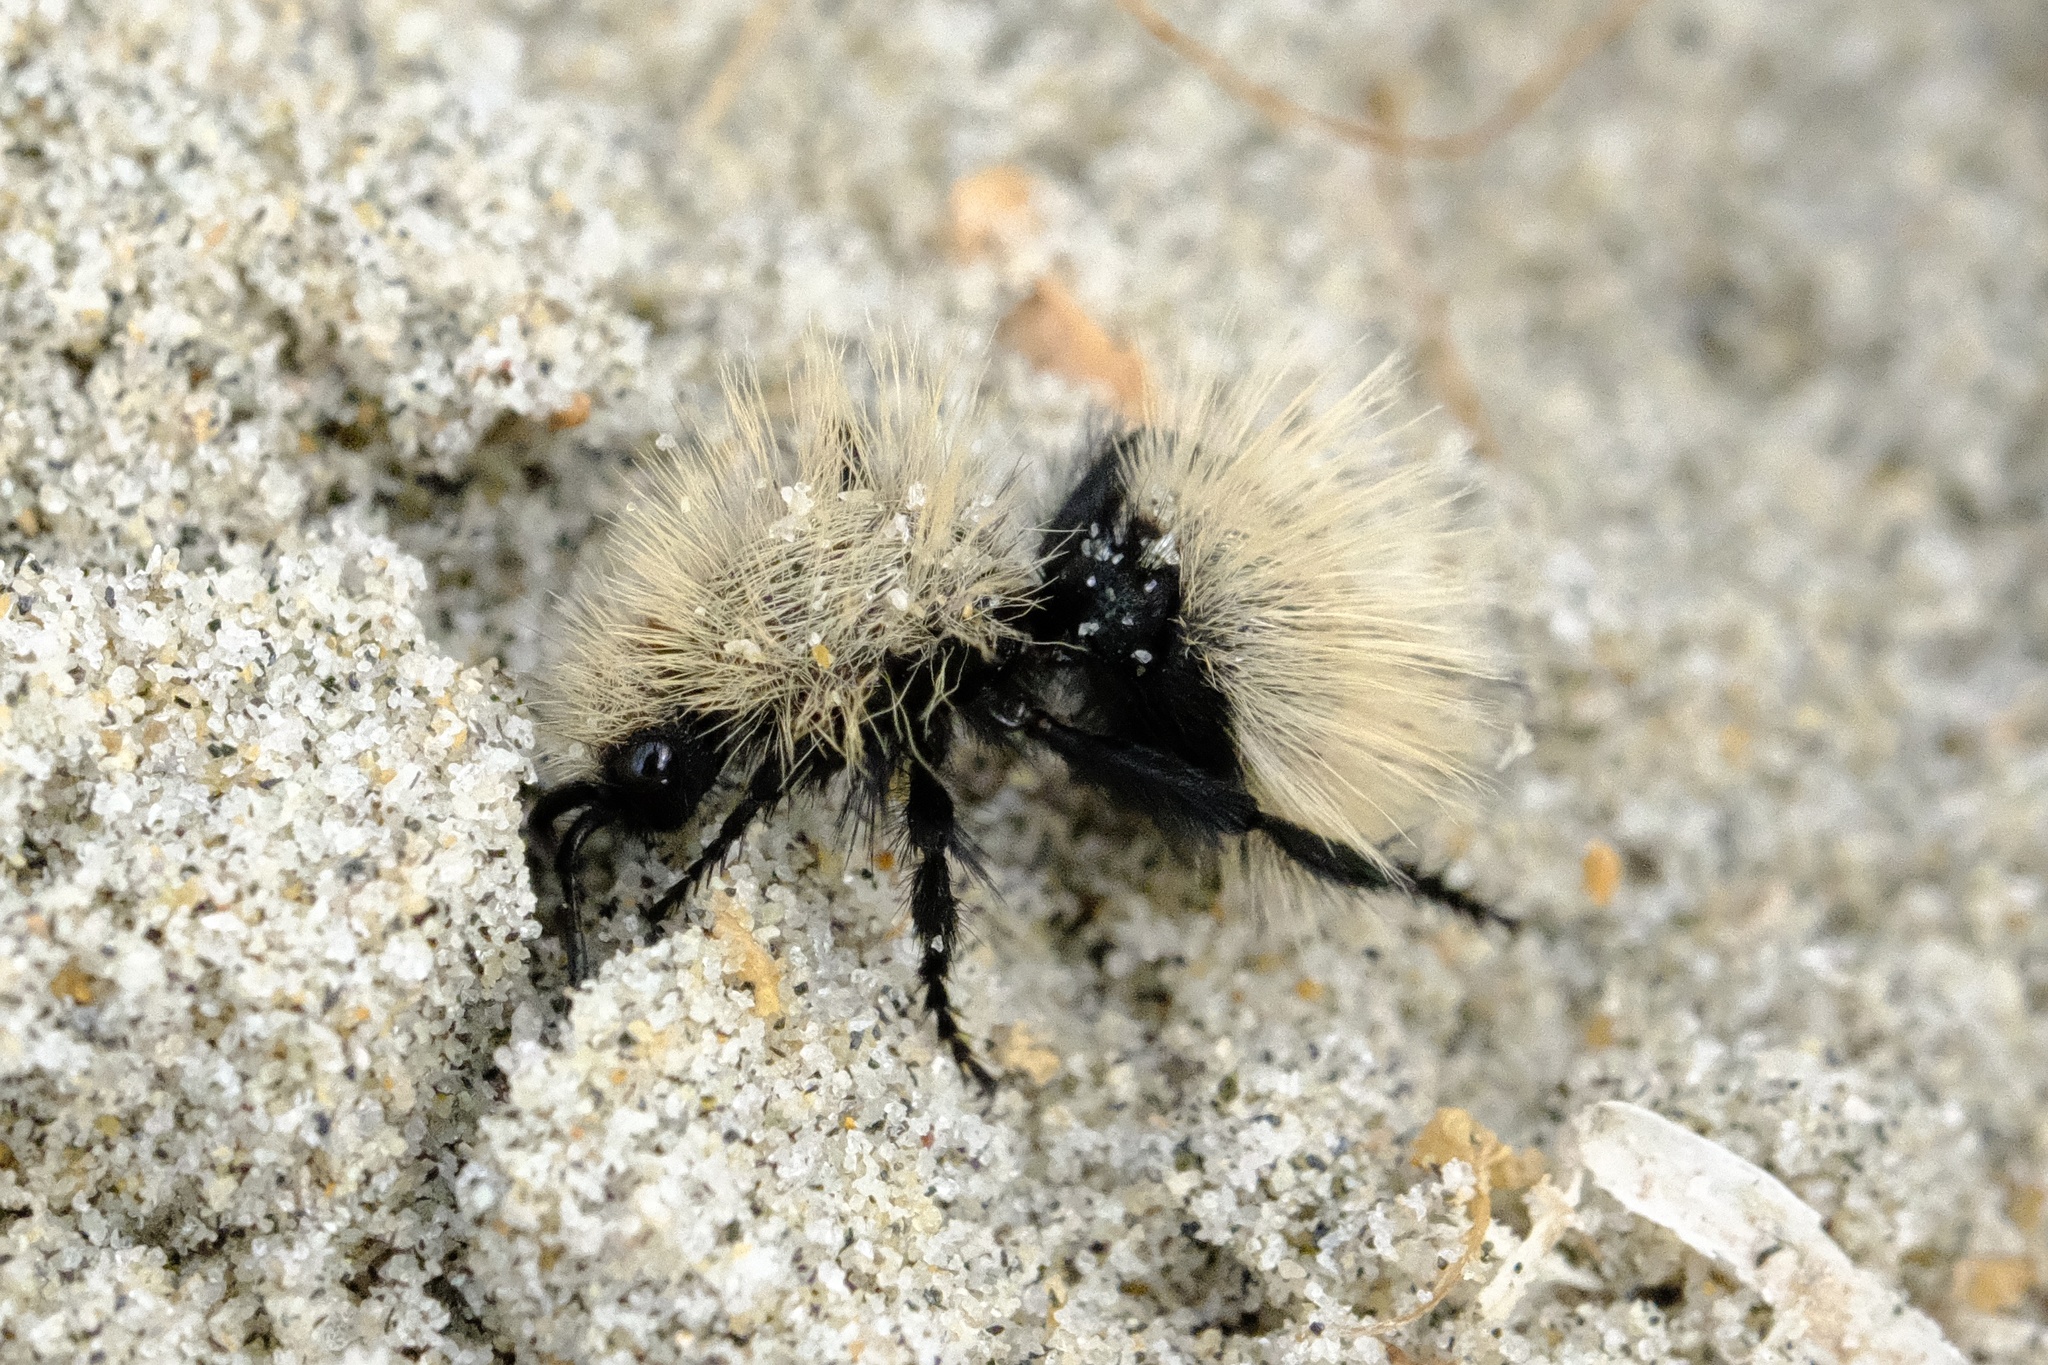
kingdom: Animalia
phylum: Arthropoda
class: Insecta
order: Hymenoptera
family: Mutillidae
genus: Dasymutilla
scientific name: Dasymutilla
